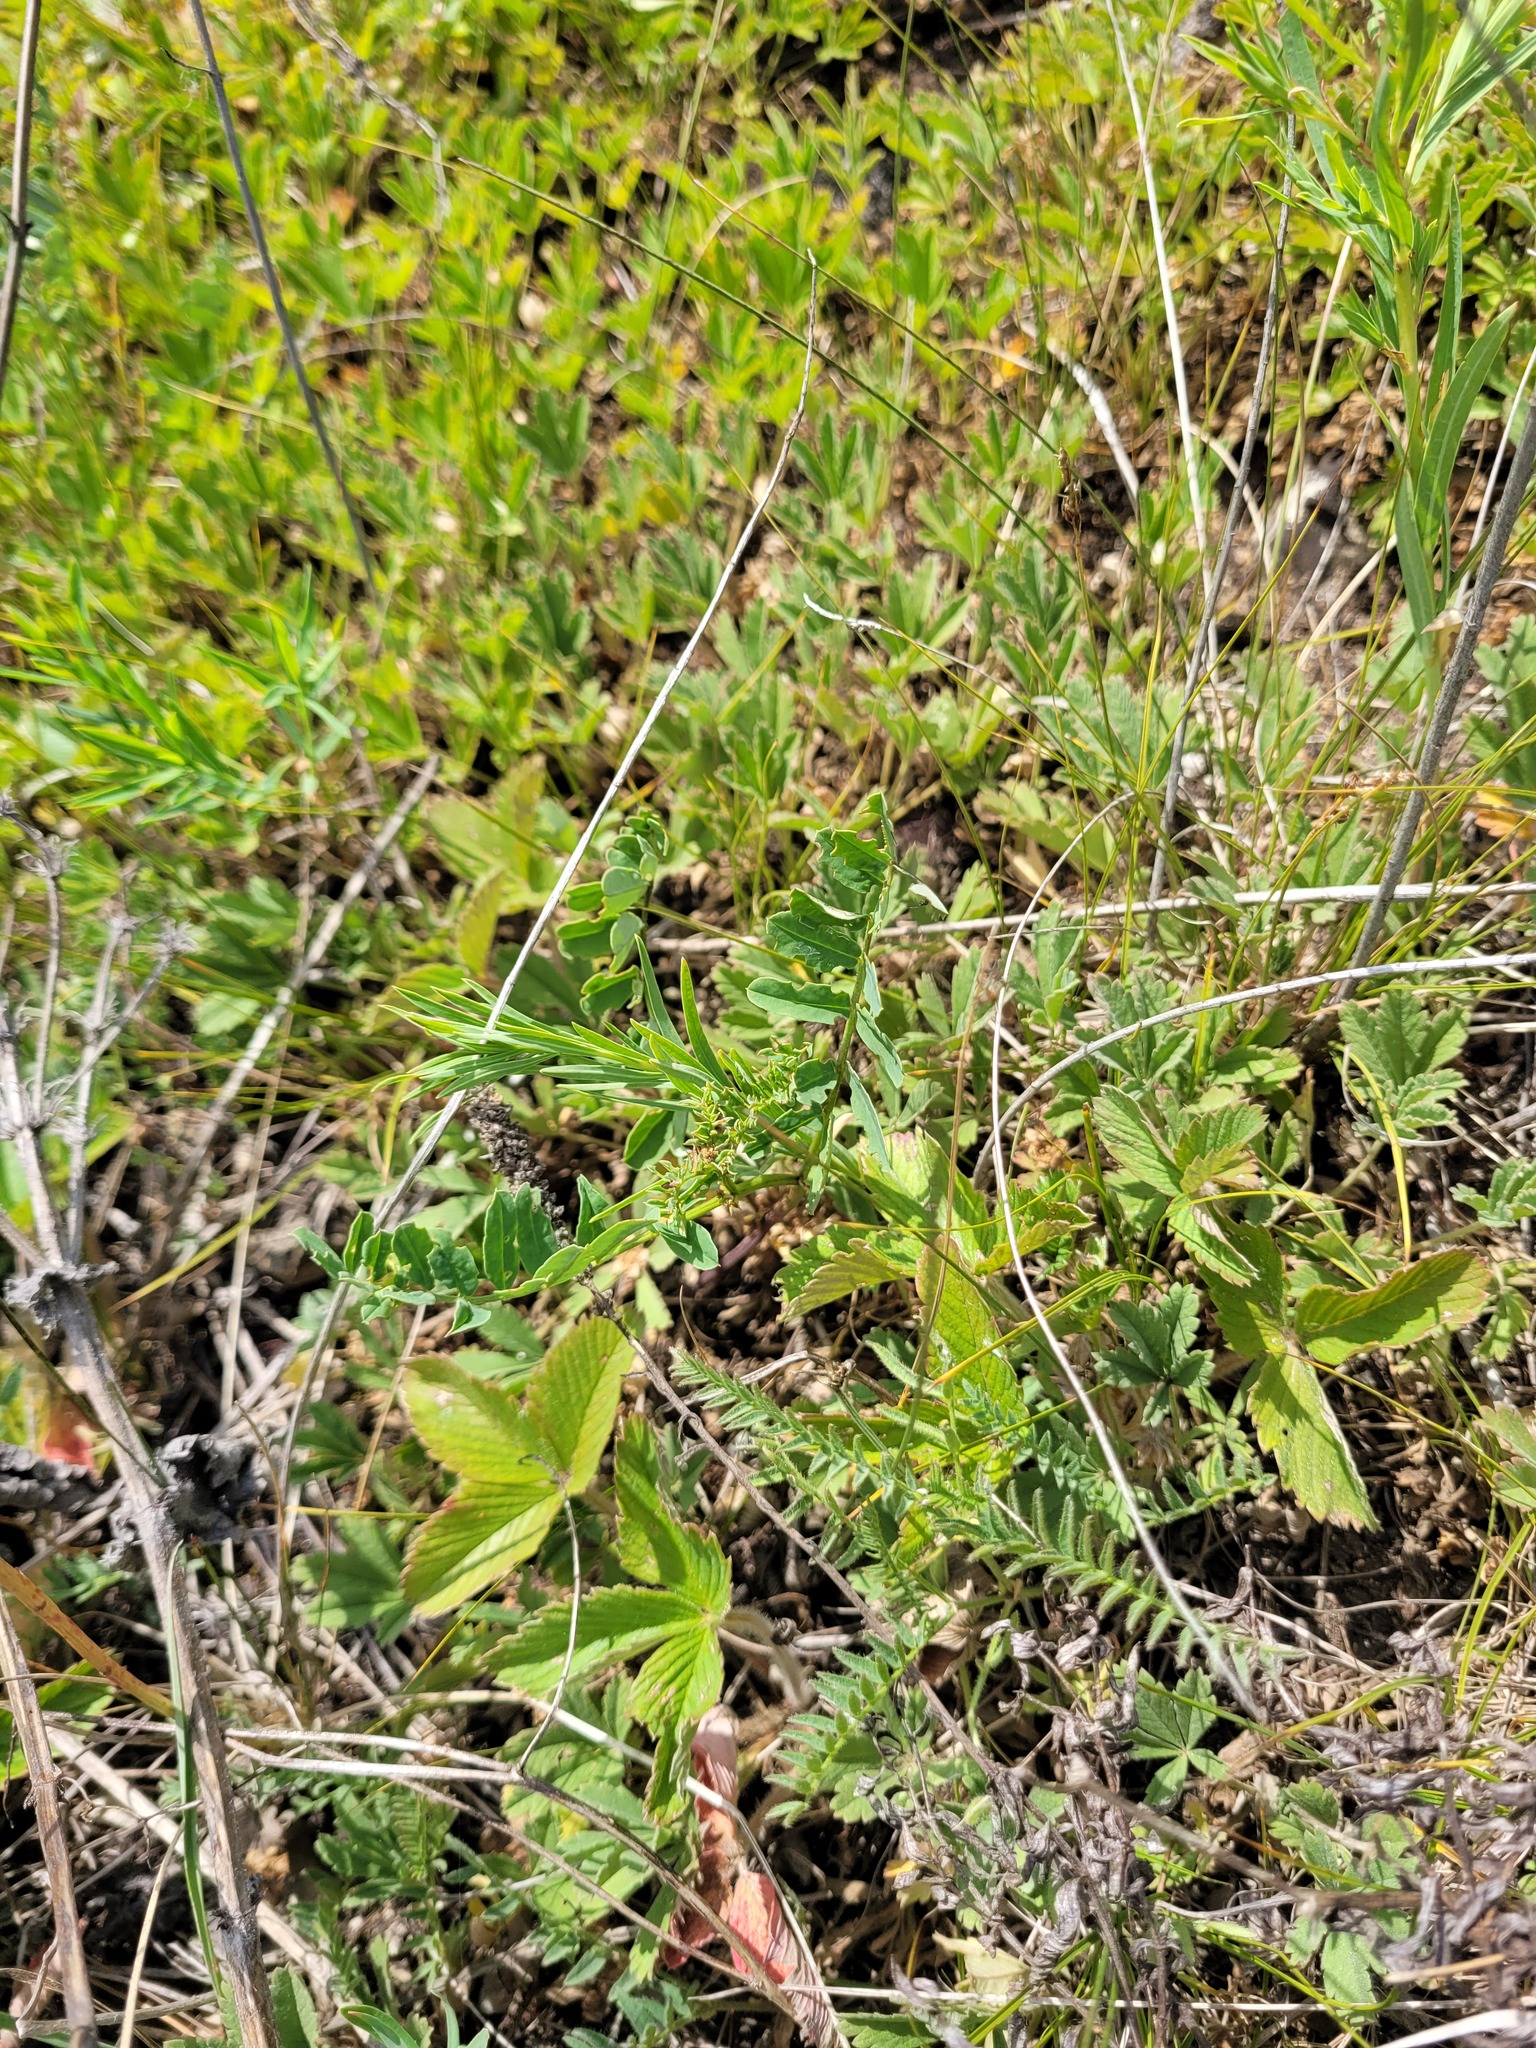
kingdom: Plantae
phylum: Tracheophyta
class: Magnoliopsida
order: Fabales
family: Fabaceae
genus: Coronilla
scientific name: Coronilla varia
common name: Crownvetch
